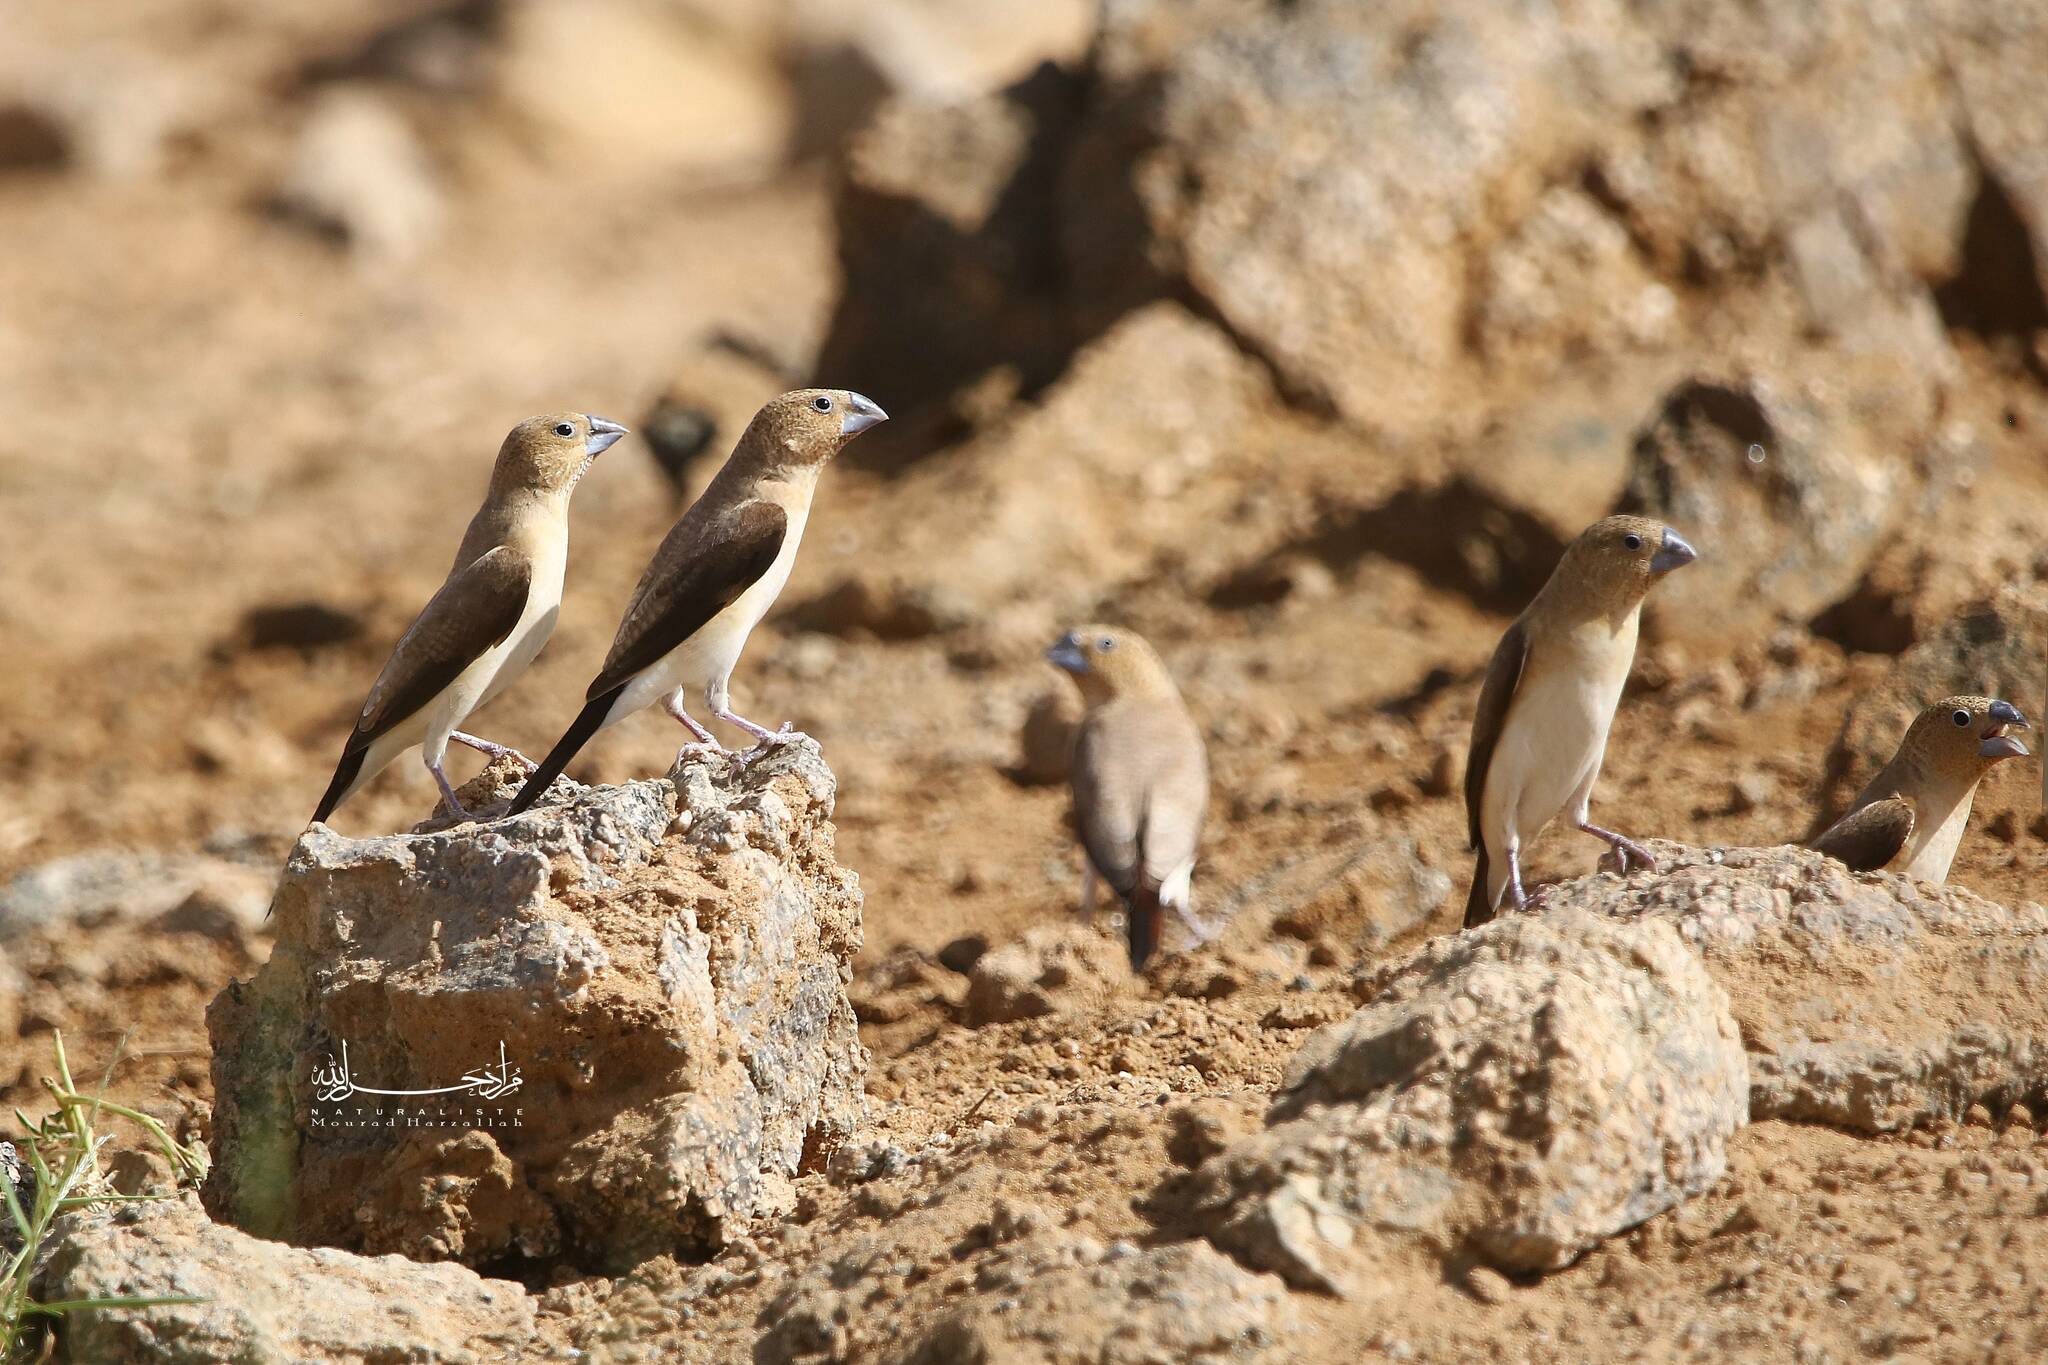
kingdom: Animalia
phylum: Chordata
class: Aves
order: Passeriformes
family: Estrildidae
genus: Euodice
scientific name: Euodice cantans
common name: African silverbill
